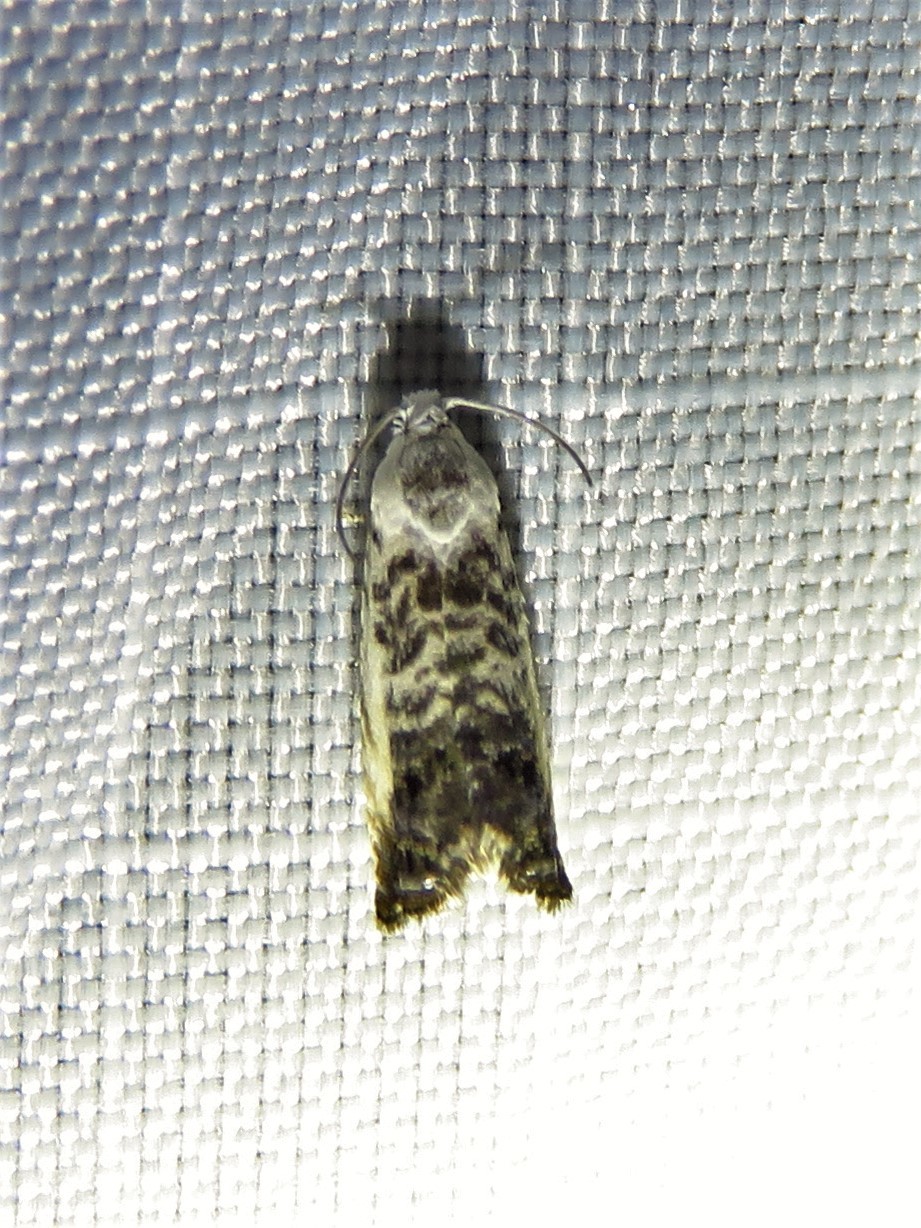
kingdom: Animalia
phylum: Arthropoda
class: Insecta
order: Lepidoptera
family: Tortricidae
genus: Cydia
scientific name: Cydia gallaesaliciana
